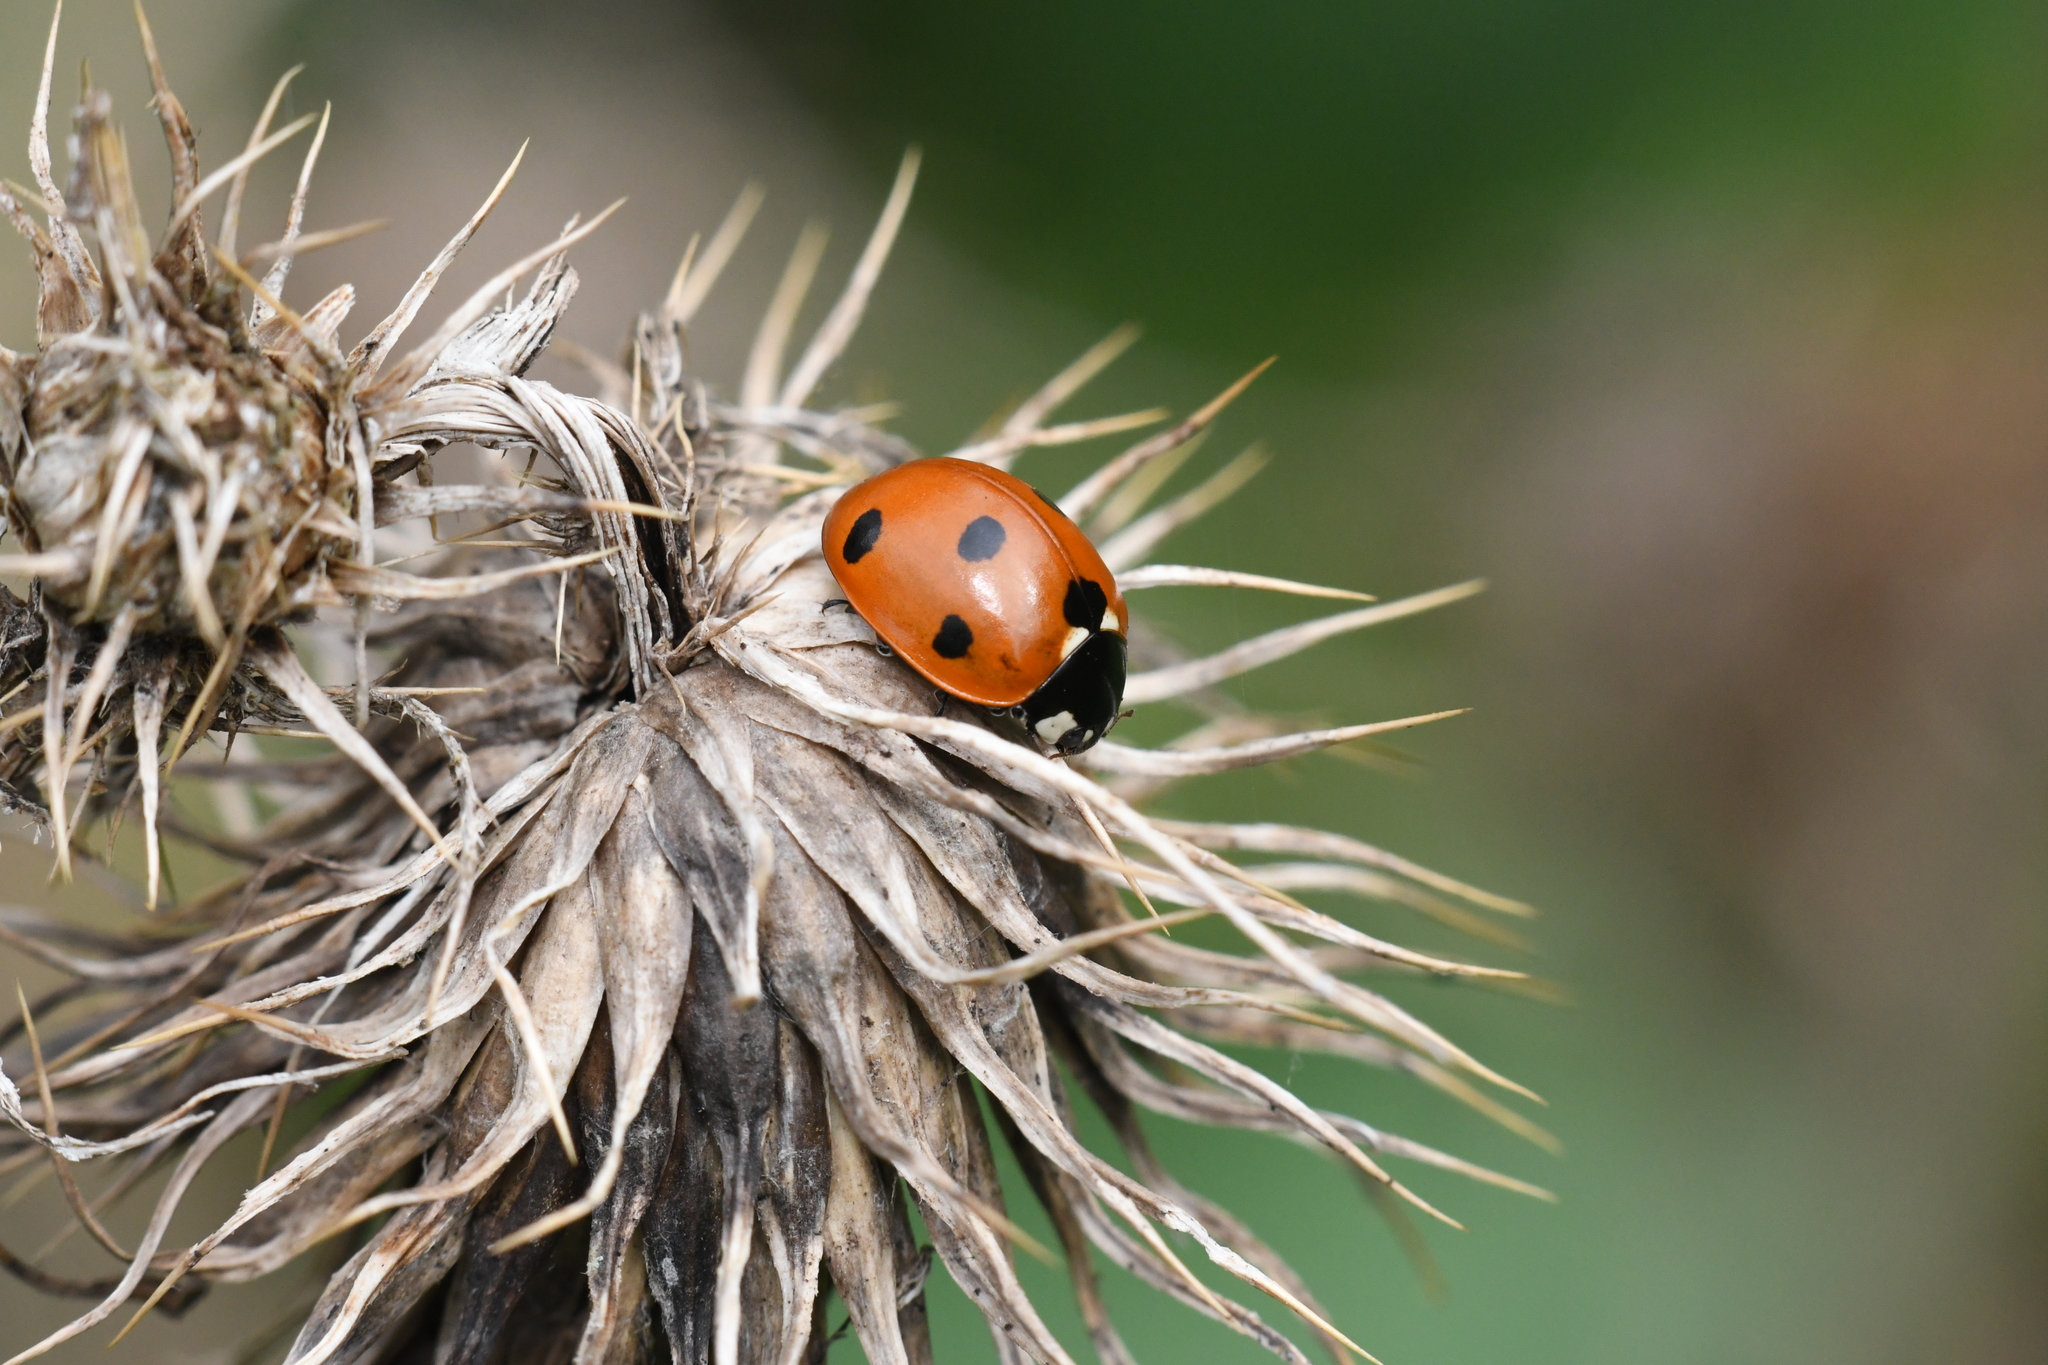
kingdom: Animalia
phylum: Arthropoda
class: Insecta
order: Coleoptera
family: Coccinellidae
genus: Coccinella
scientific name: Coccinella septempunctata
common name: Sevenspotted lady beetle
